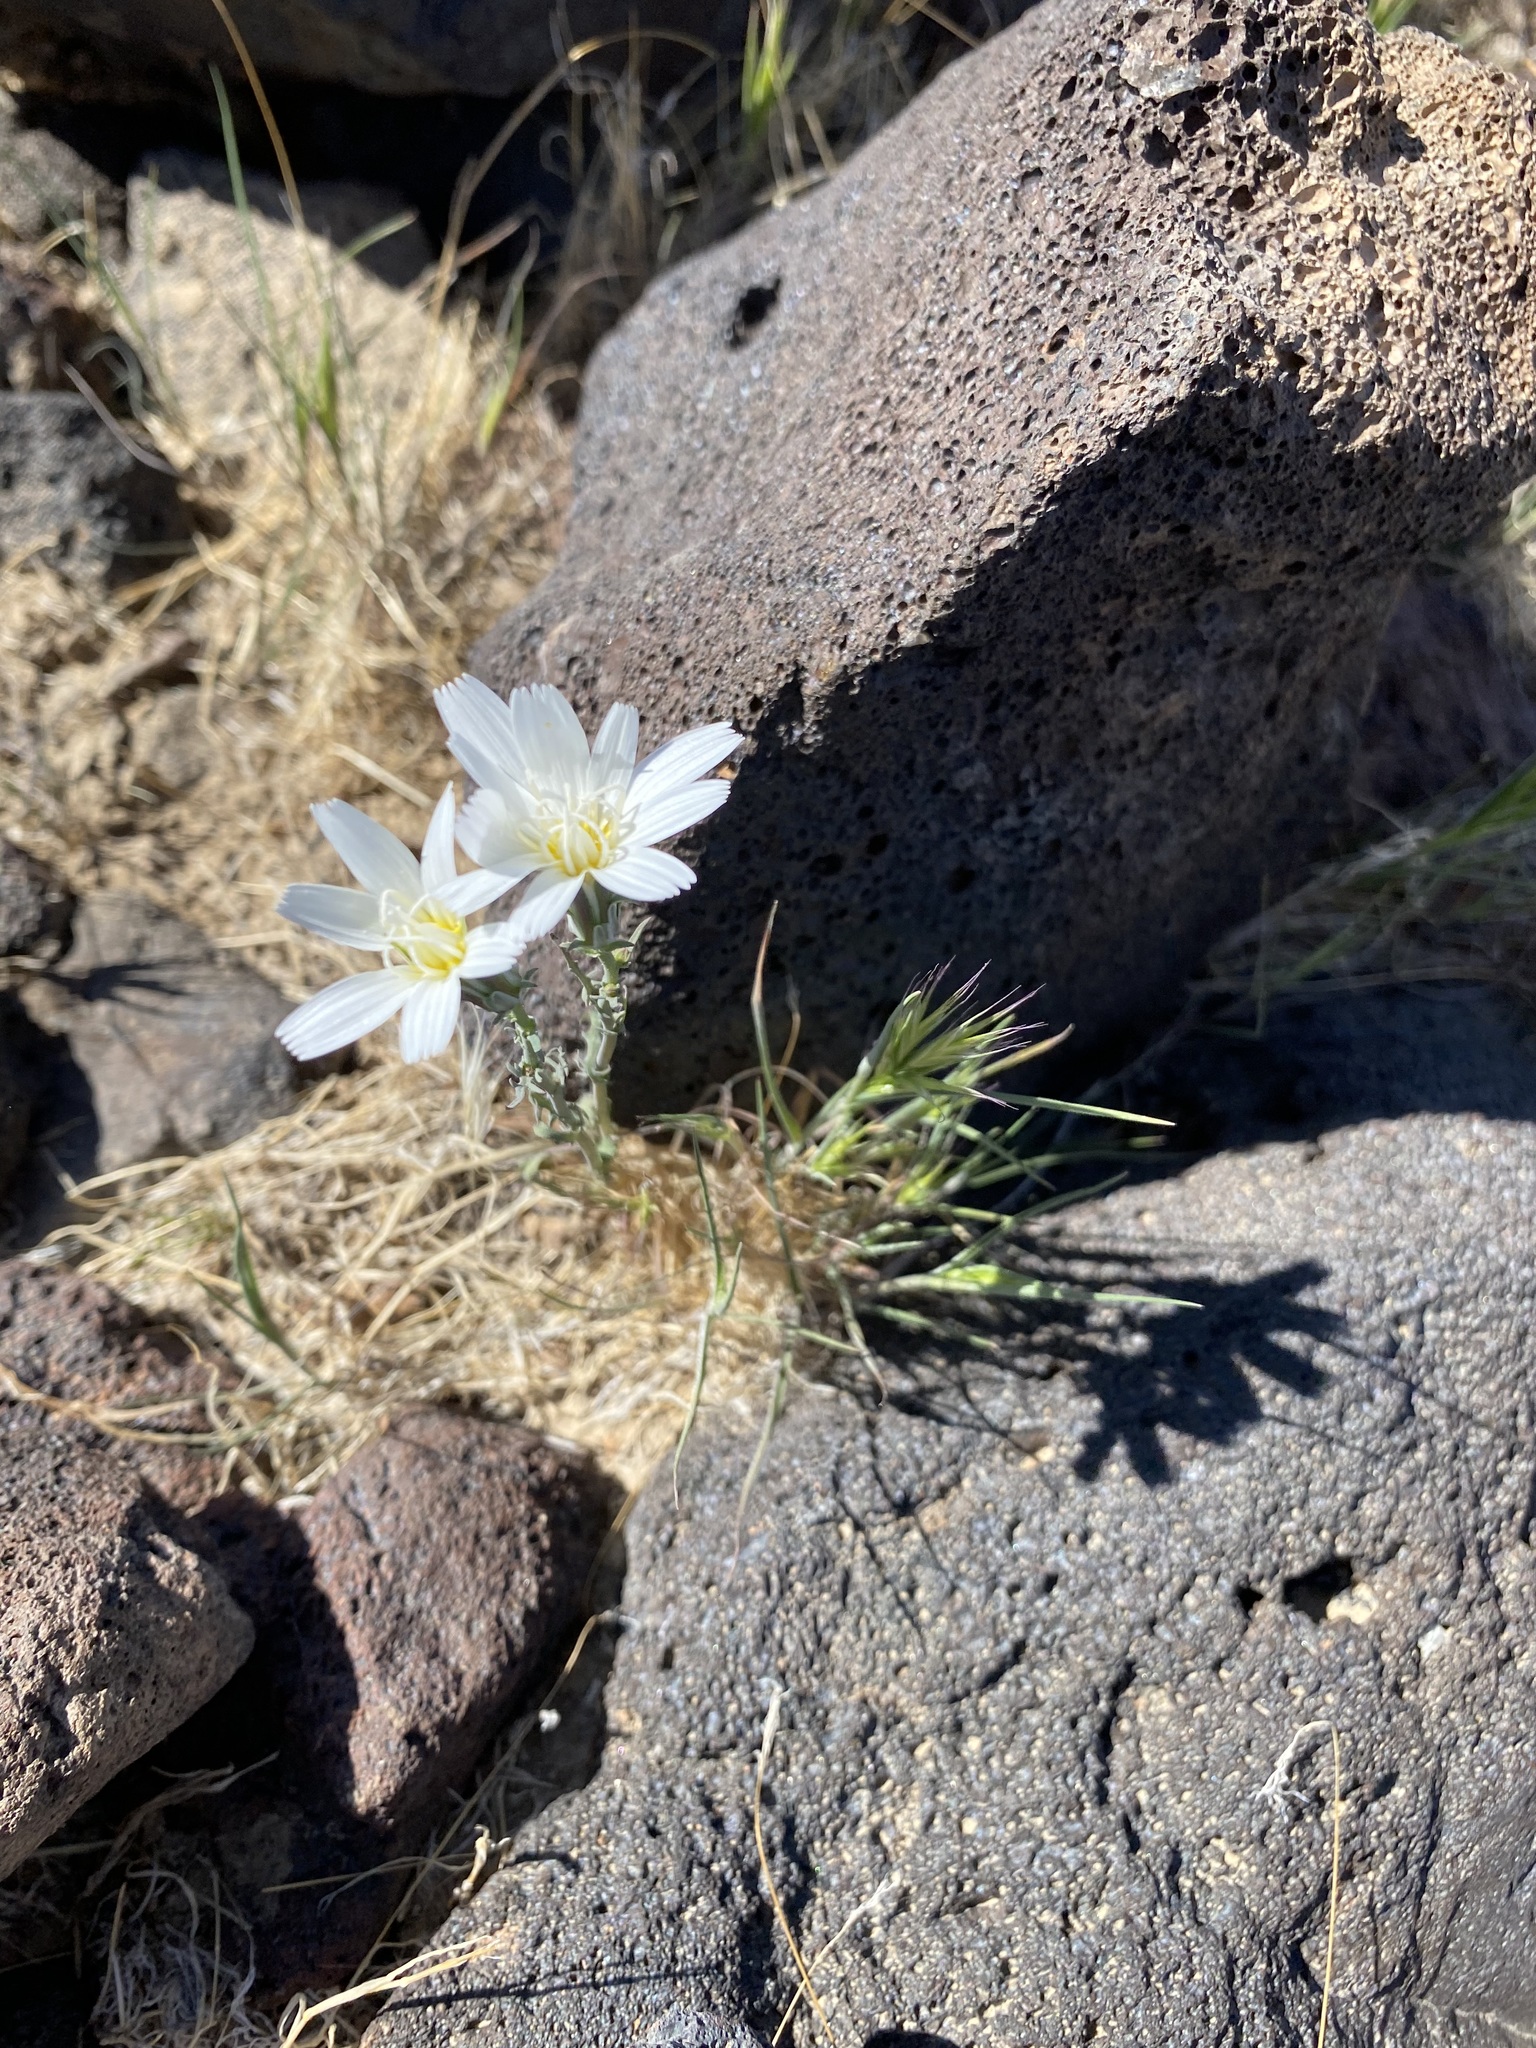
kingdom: Plantae
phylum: Tracheophyta
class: Magnoliopsida
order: Asterales
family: Asteraceae
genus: Rafinesquia
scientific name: Rafinesquia neomexicana
